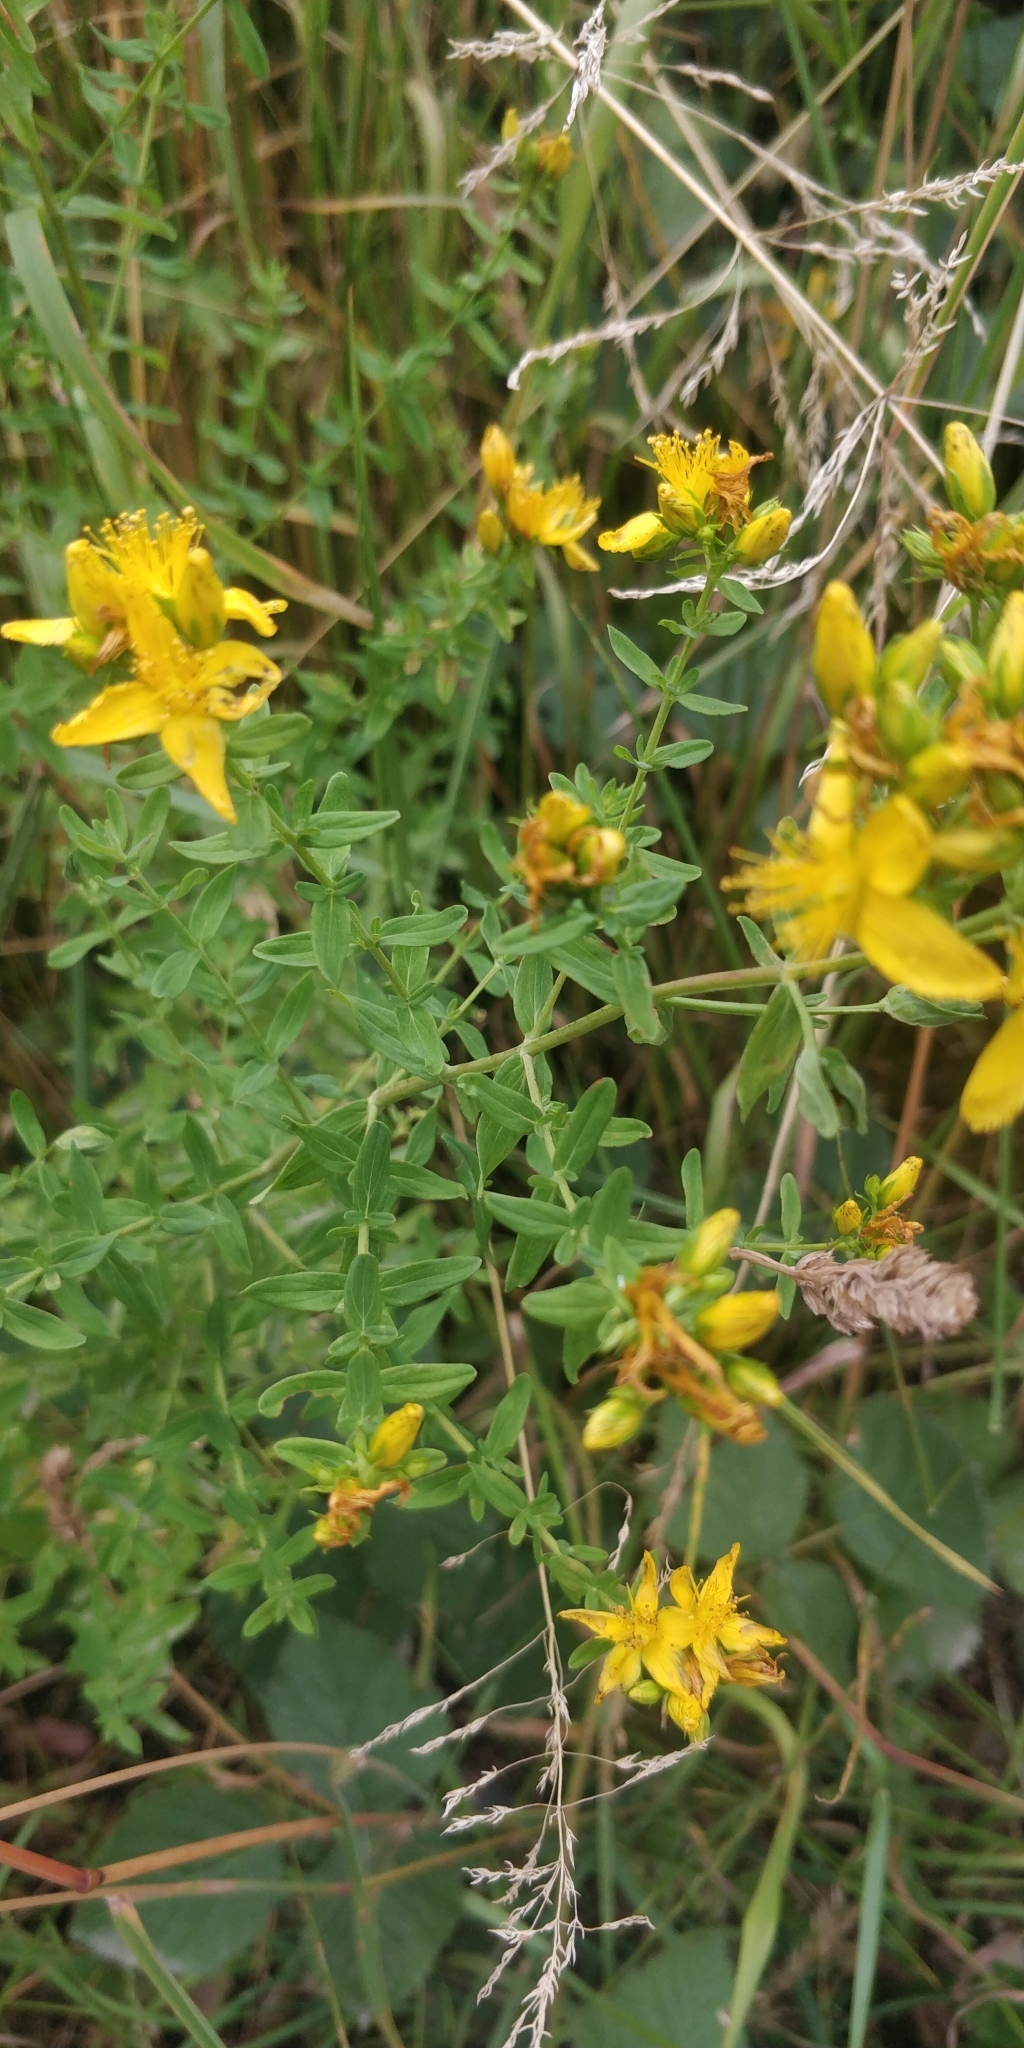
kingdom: Plantae
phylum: Tracheophyta
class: Magnoliopsida
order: Malpighiales
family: Hypericaceae
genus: Hypericum
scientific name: Hypericum perforatum
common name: Common st. johnswort
